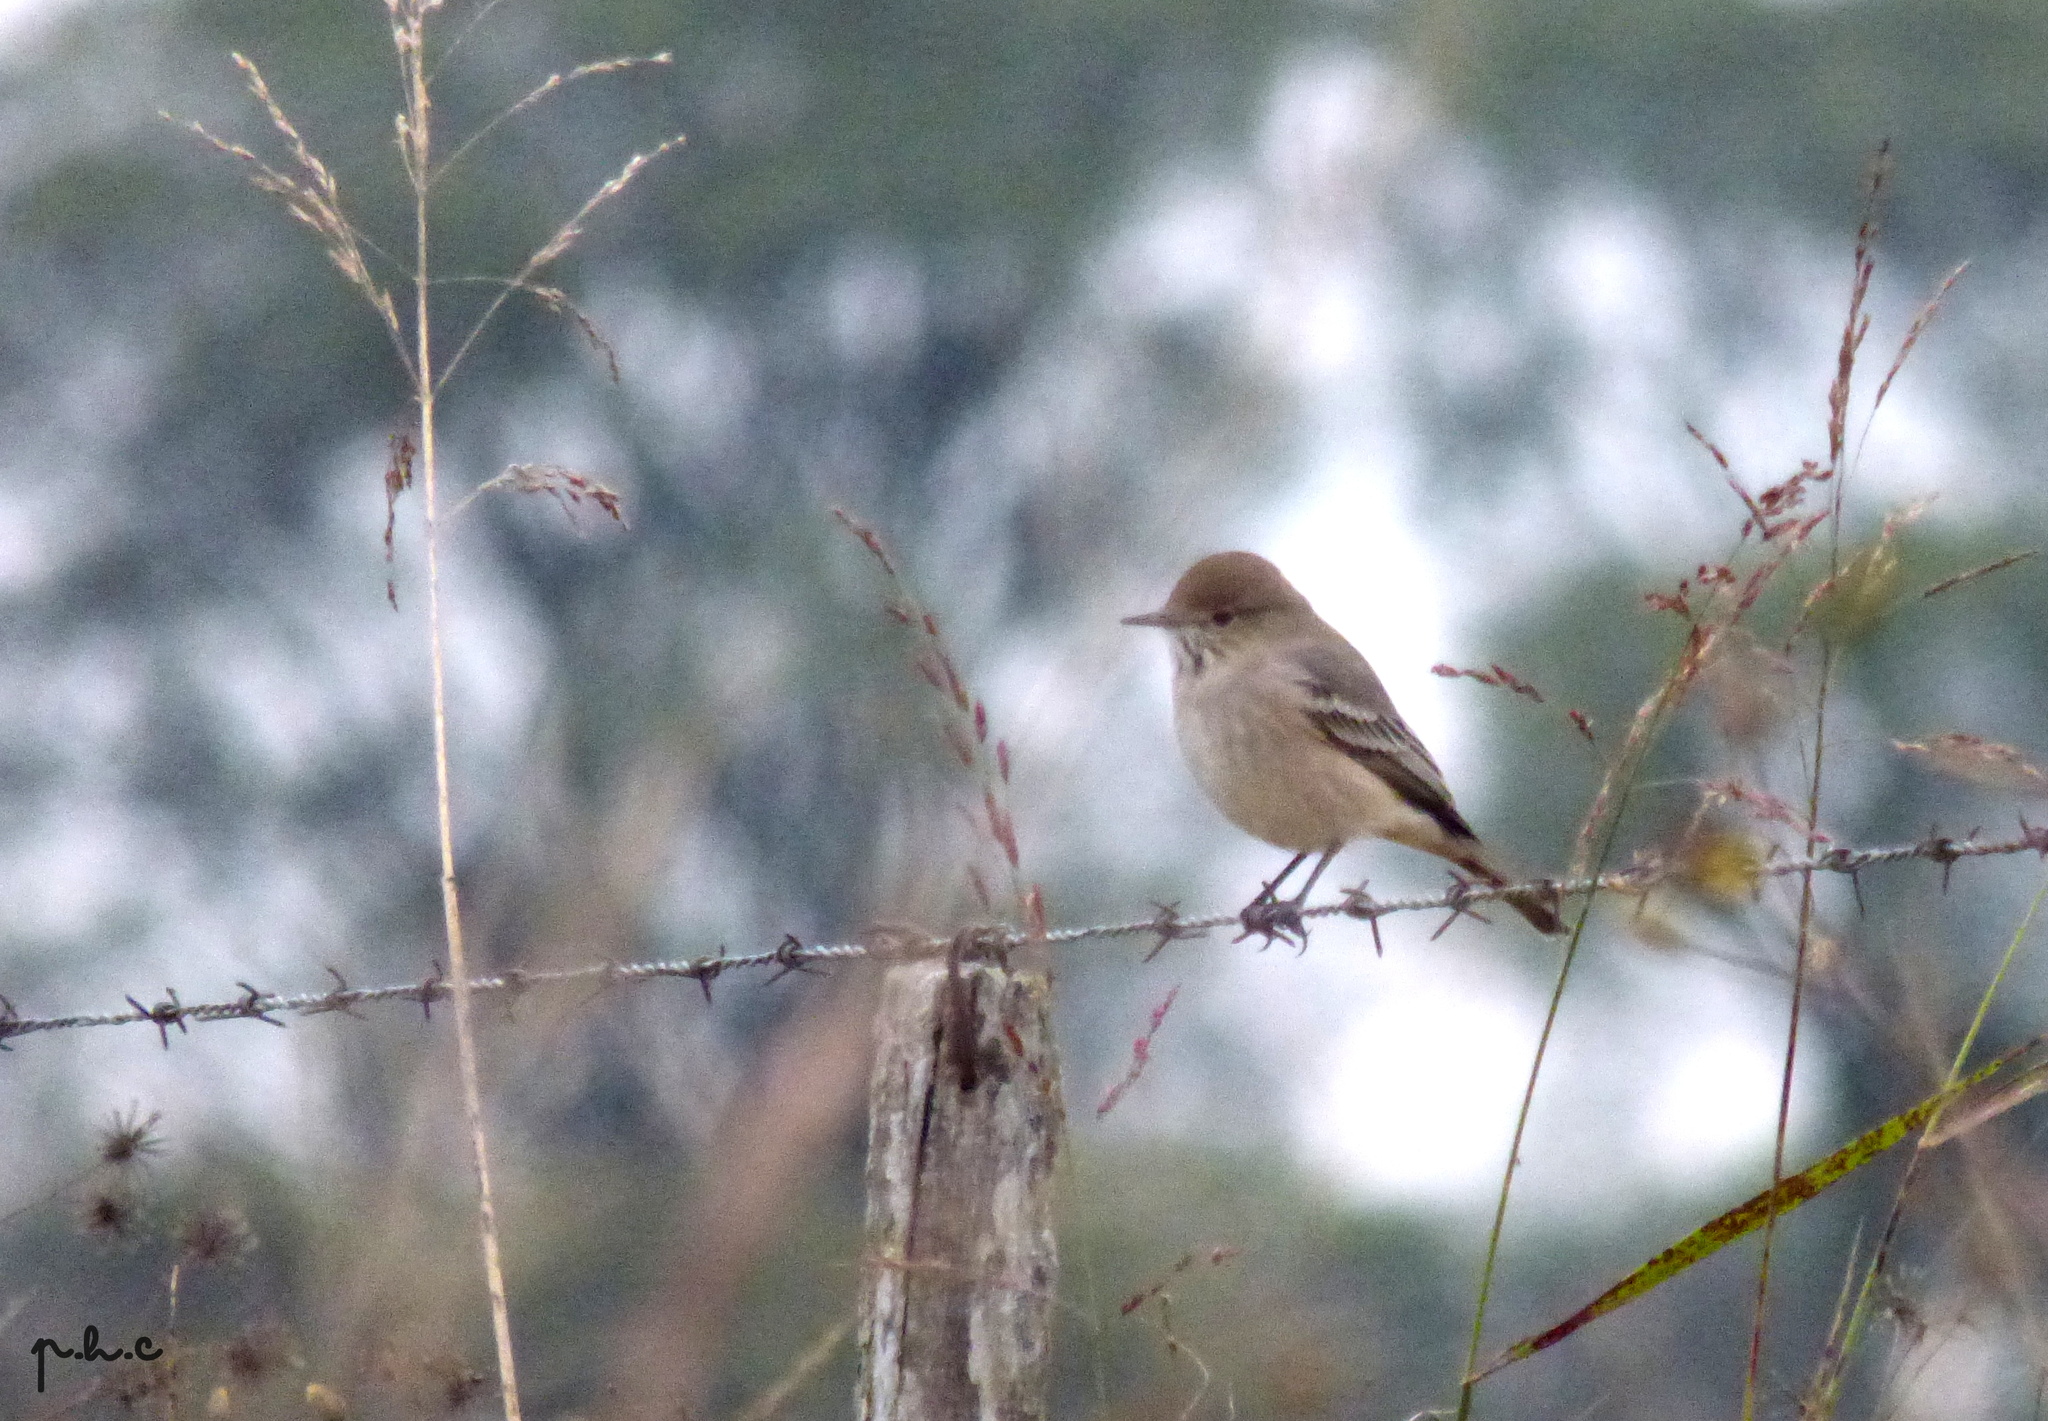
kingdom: Animalia
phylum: Chordata
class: Aves
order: Passeriformes
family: Tyrannidae
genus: Agriornis
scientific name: Agriornis murinus
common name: Lesser shrike-tyrant
